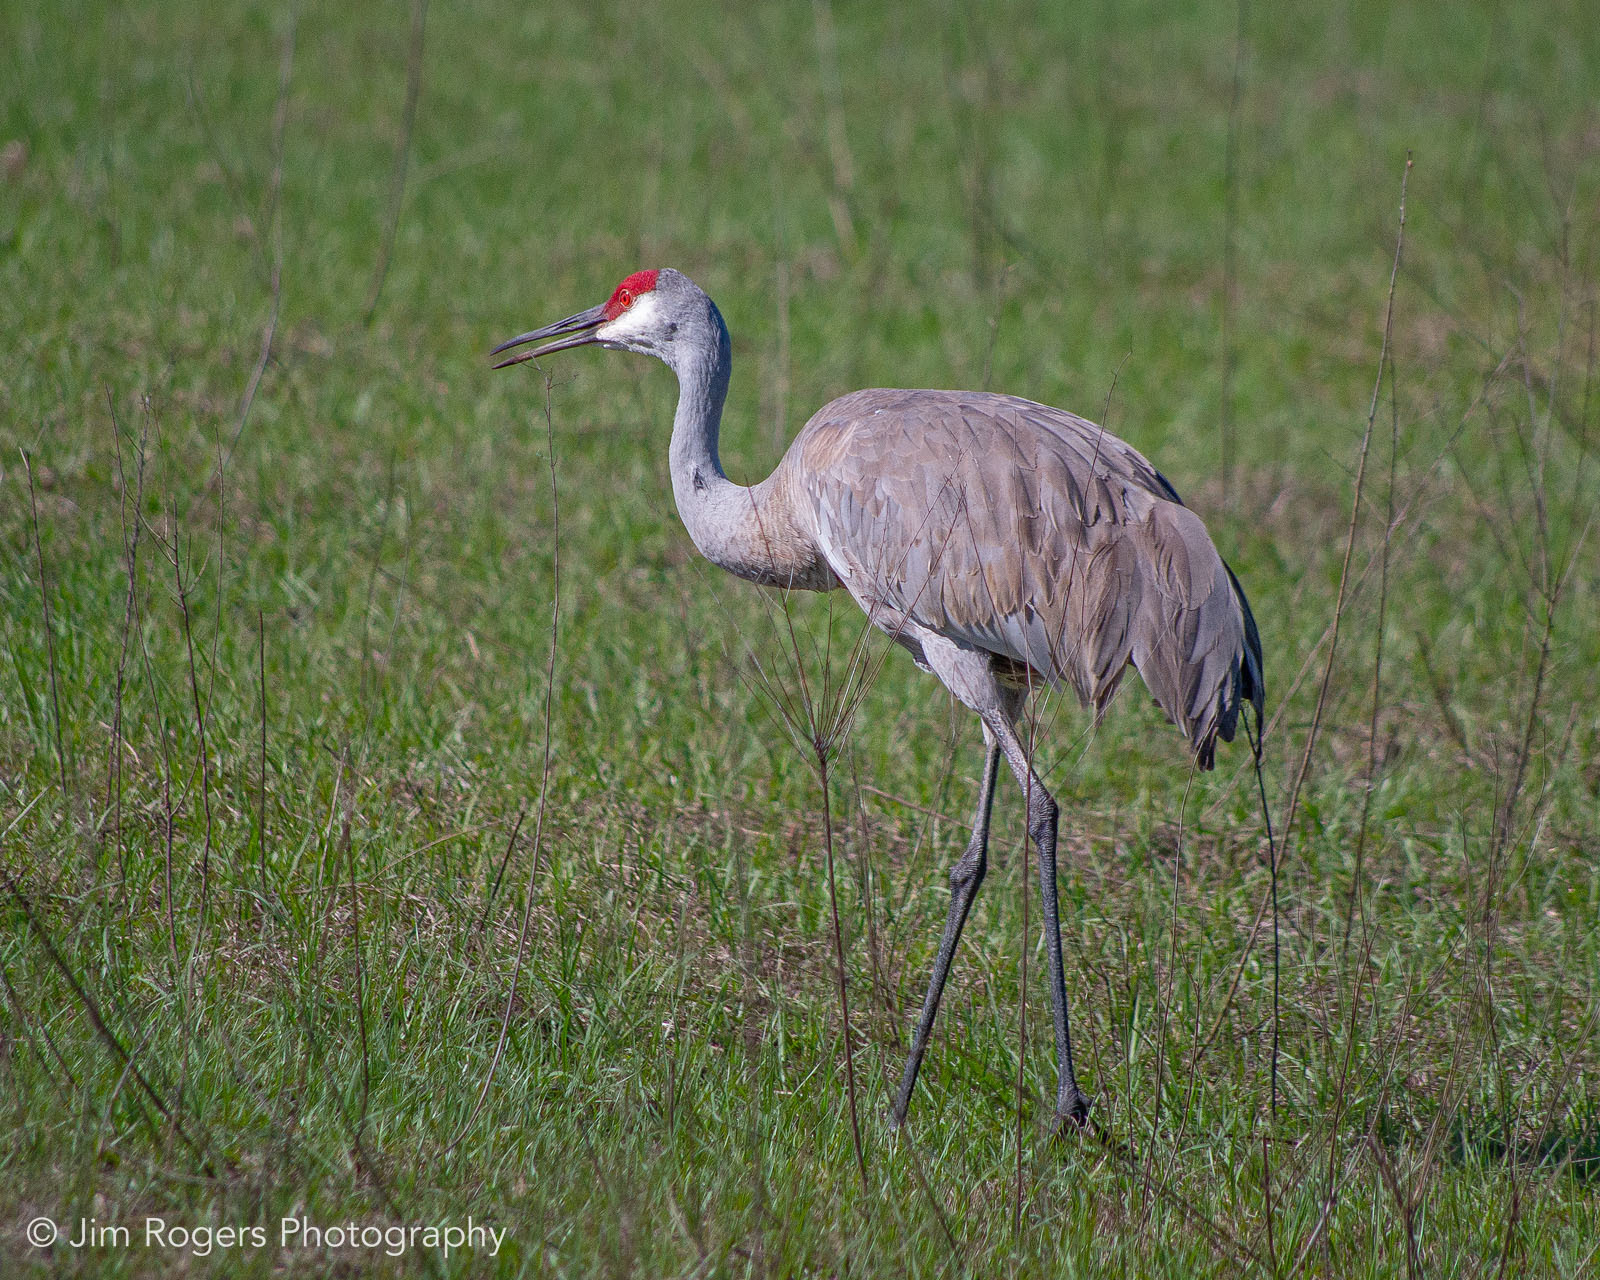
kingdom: Animalia
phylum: Chordata
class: Aves
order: Gruiformes
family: Gruidae
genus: Grus
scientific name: Grus canadensis
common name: Sandhill crane
